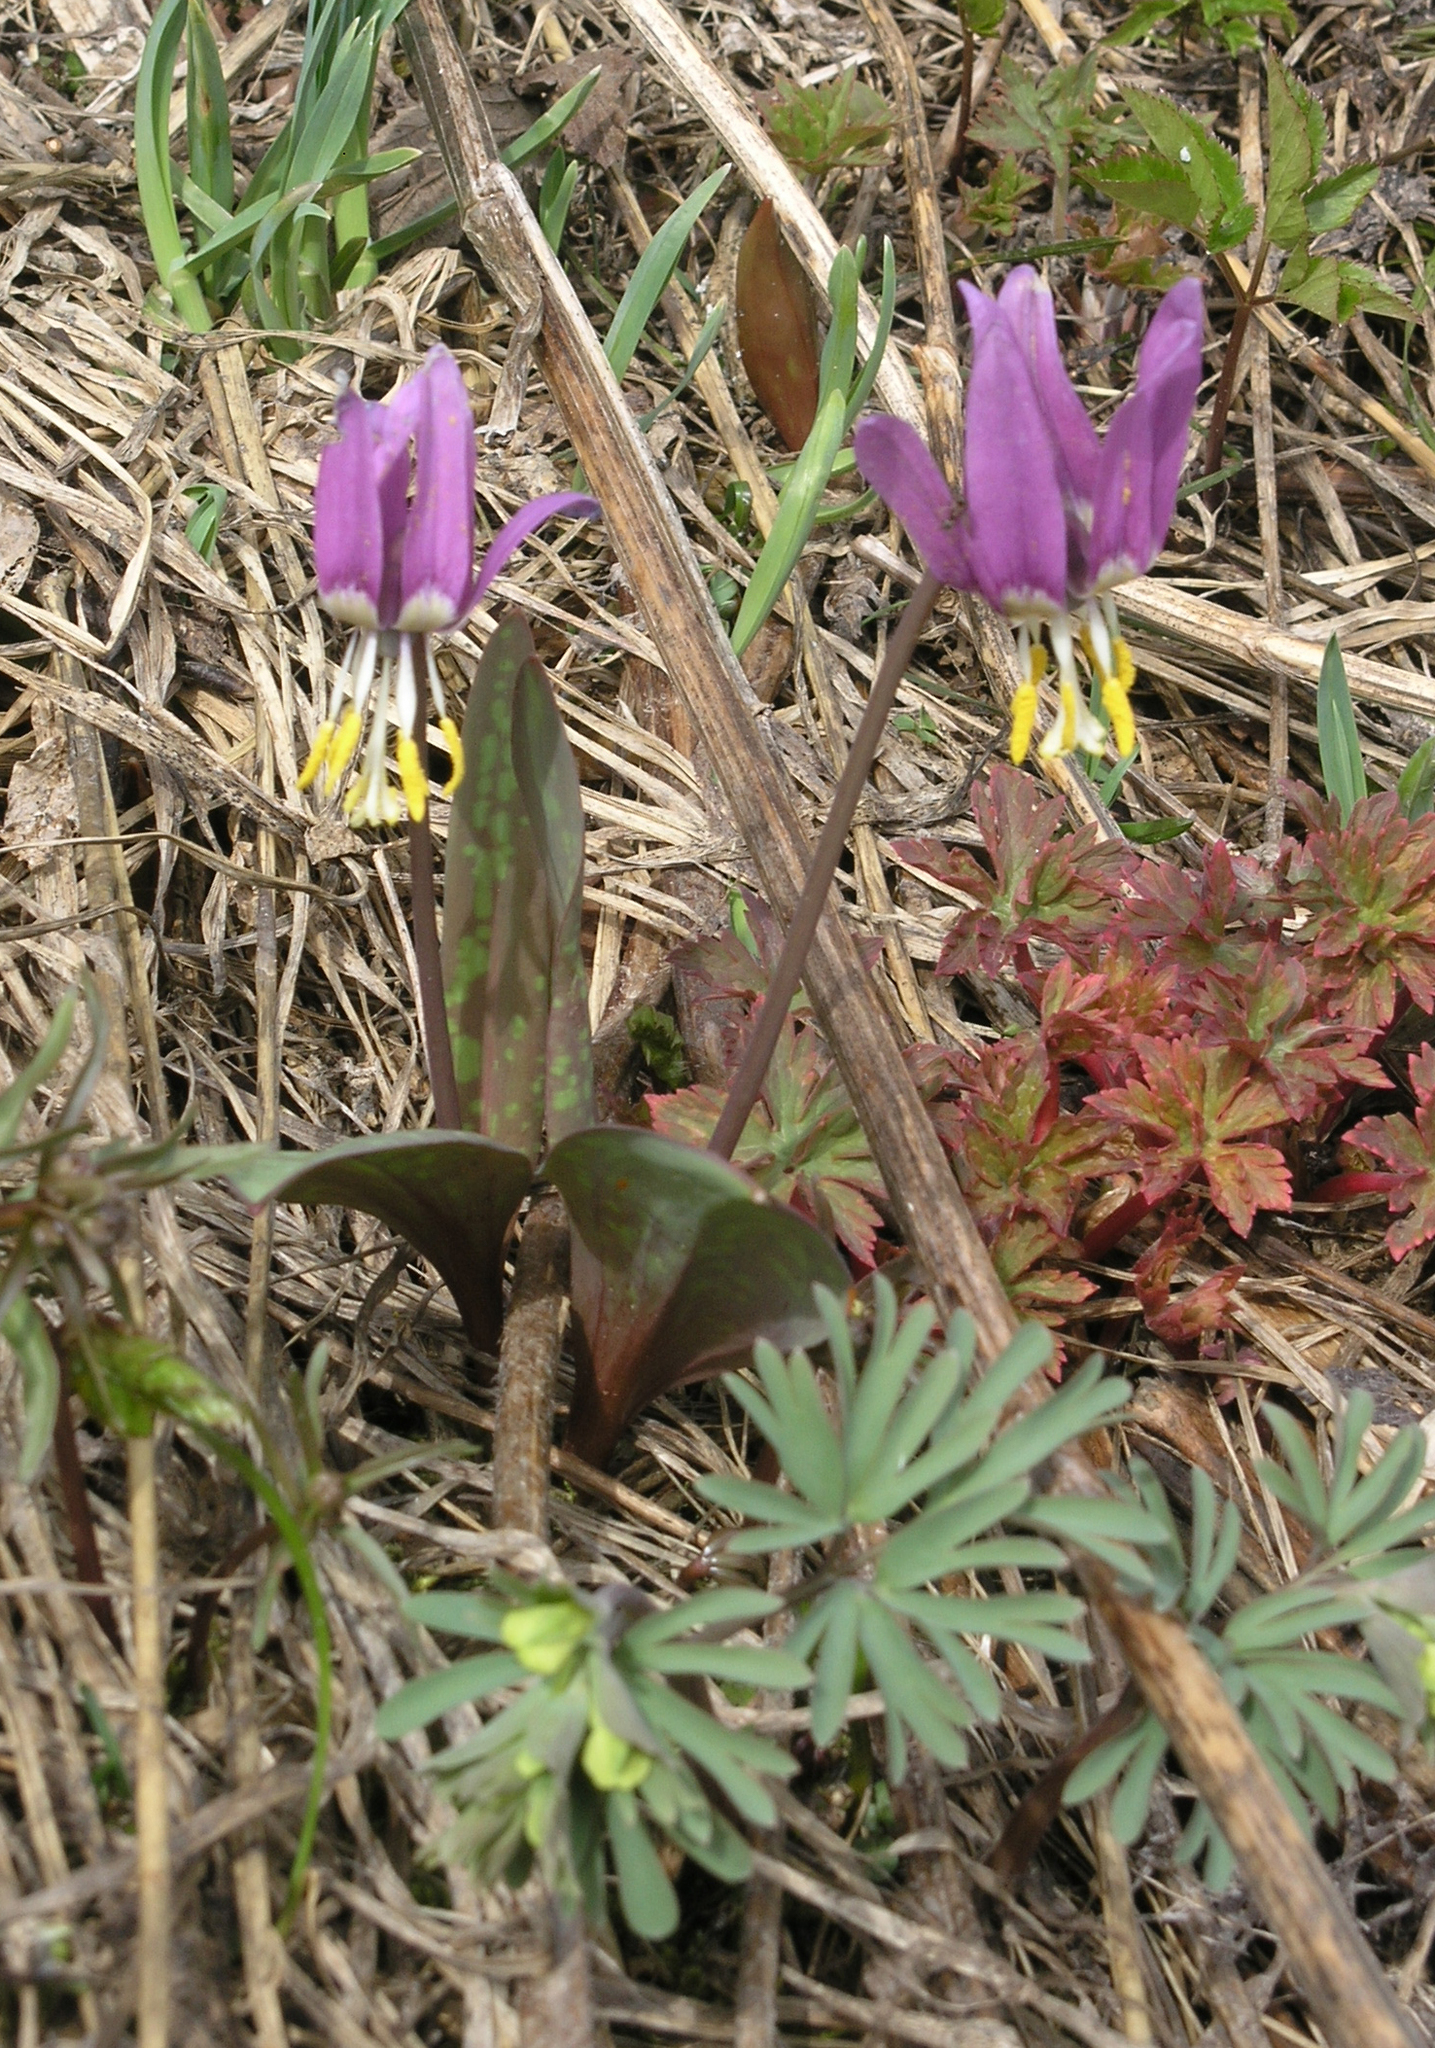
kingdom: Plantae
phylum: Tracheophyta
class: Liliopsida
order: Liliales
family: Liliaceae
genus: Erythronium
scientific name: Erythronium sibiricum
